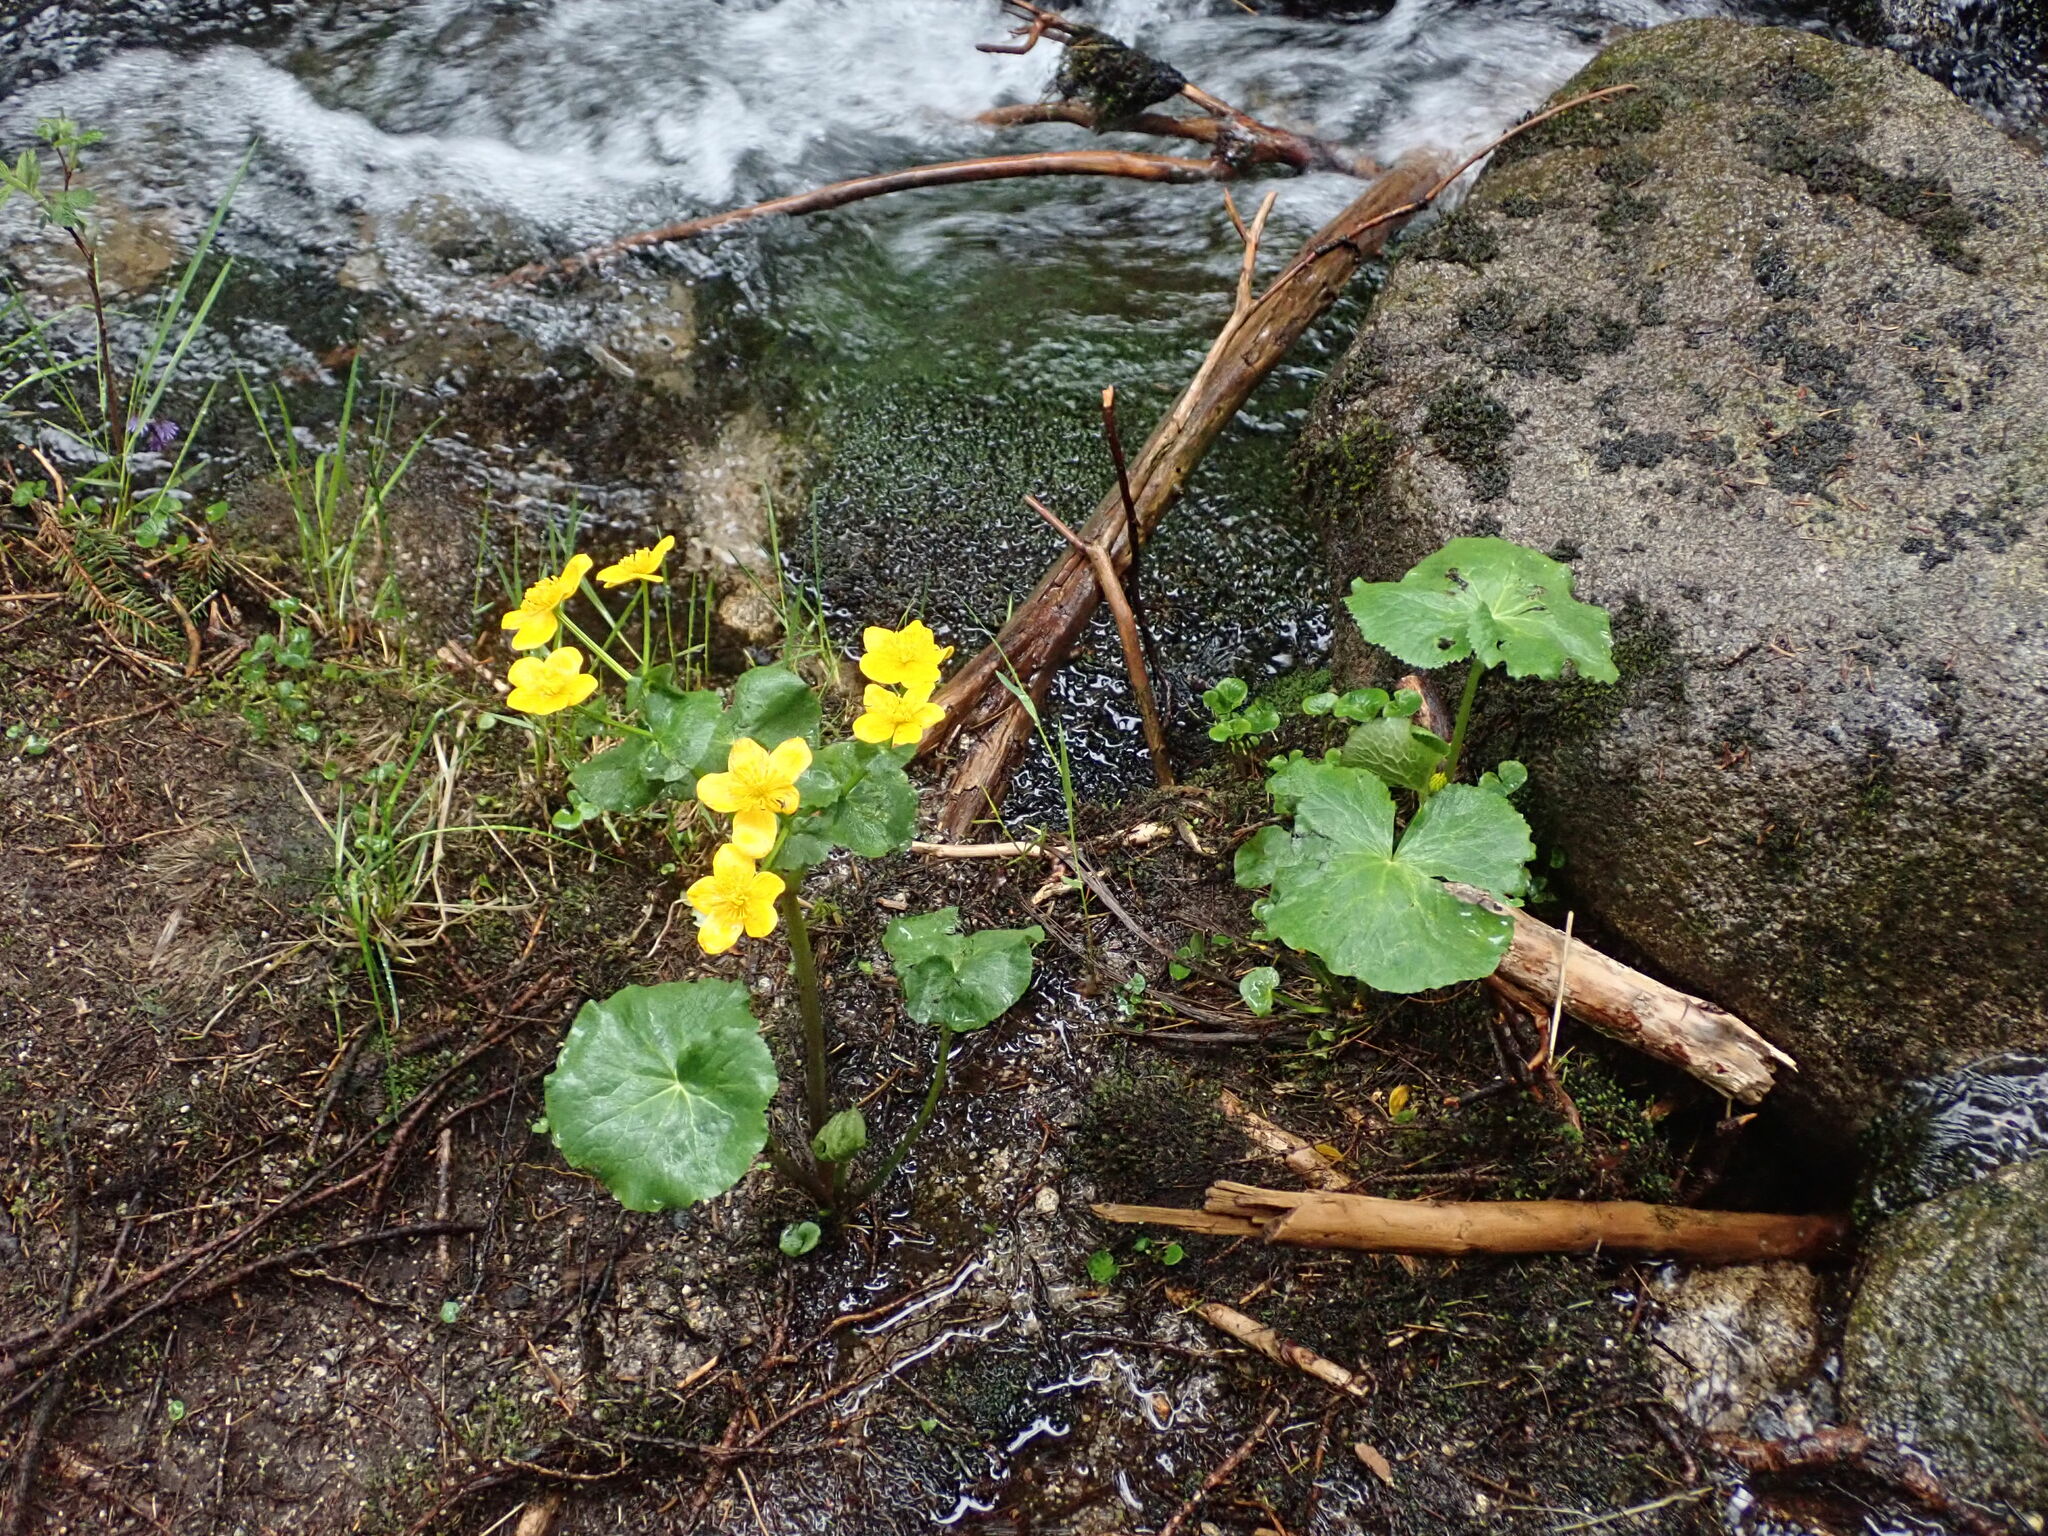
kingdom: Plantae
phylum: Tracheophyta
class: Magnoliopsida
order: Ranunculales
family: Ranunculaceae
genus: Caltha
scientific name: Caltha palustris
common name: Marsh marigold
